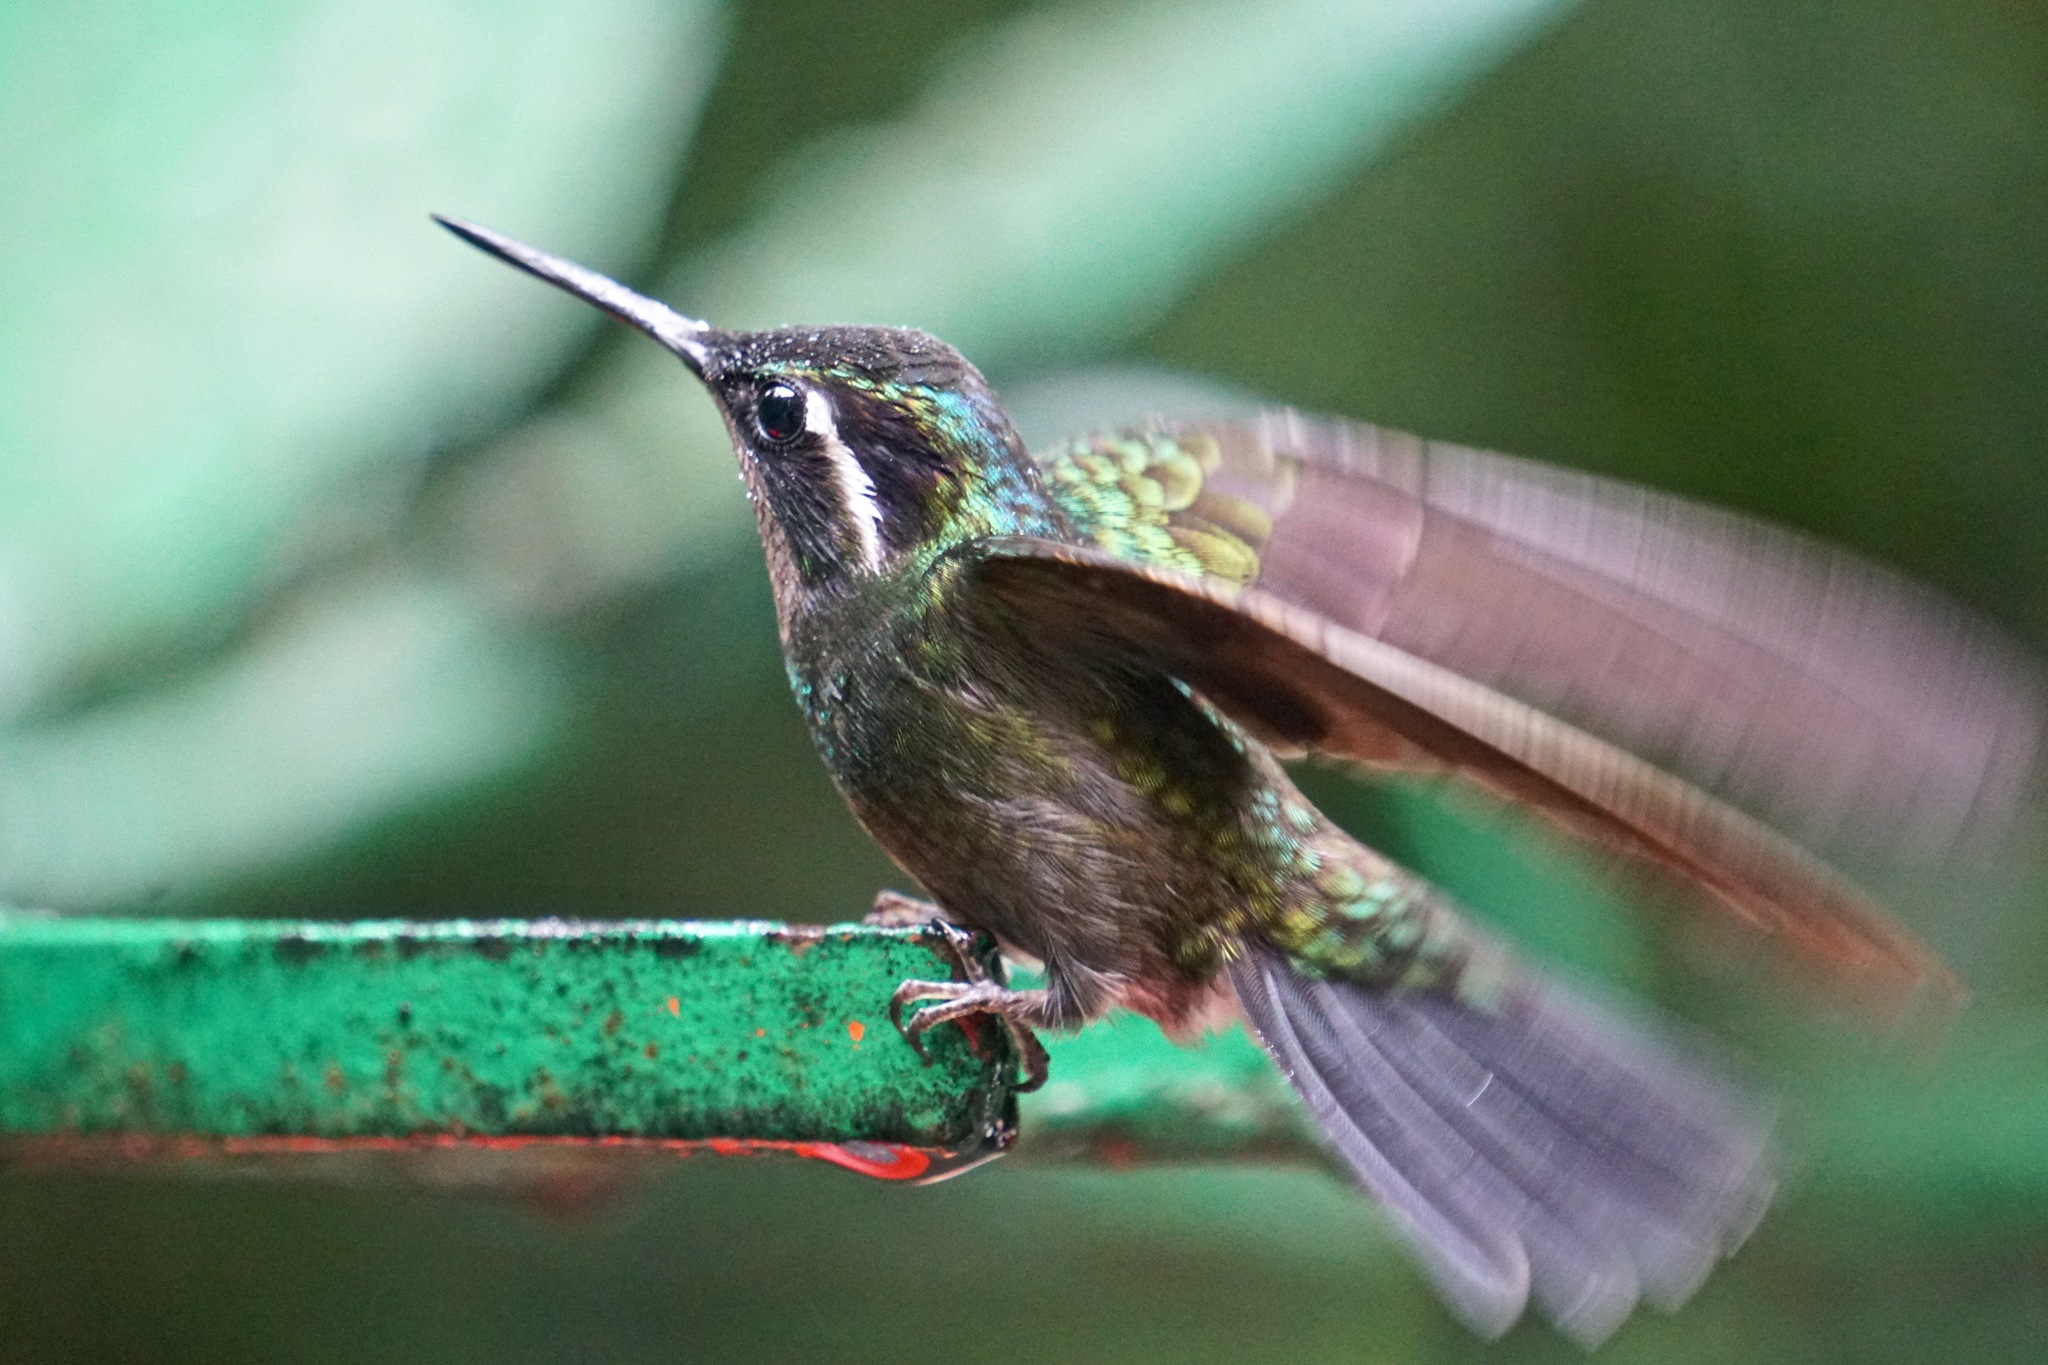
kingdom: Animalia
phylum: Chordata
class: Aves
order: Apodiformes
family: Trochilidae
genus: Lampornis
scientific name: Lampornis calolaemus
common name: Purple-throated mountain-gem
